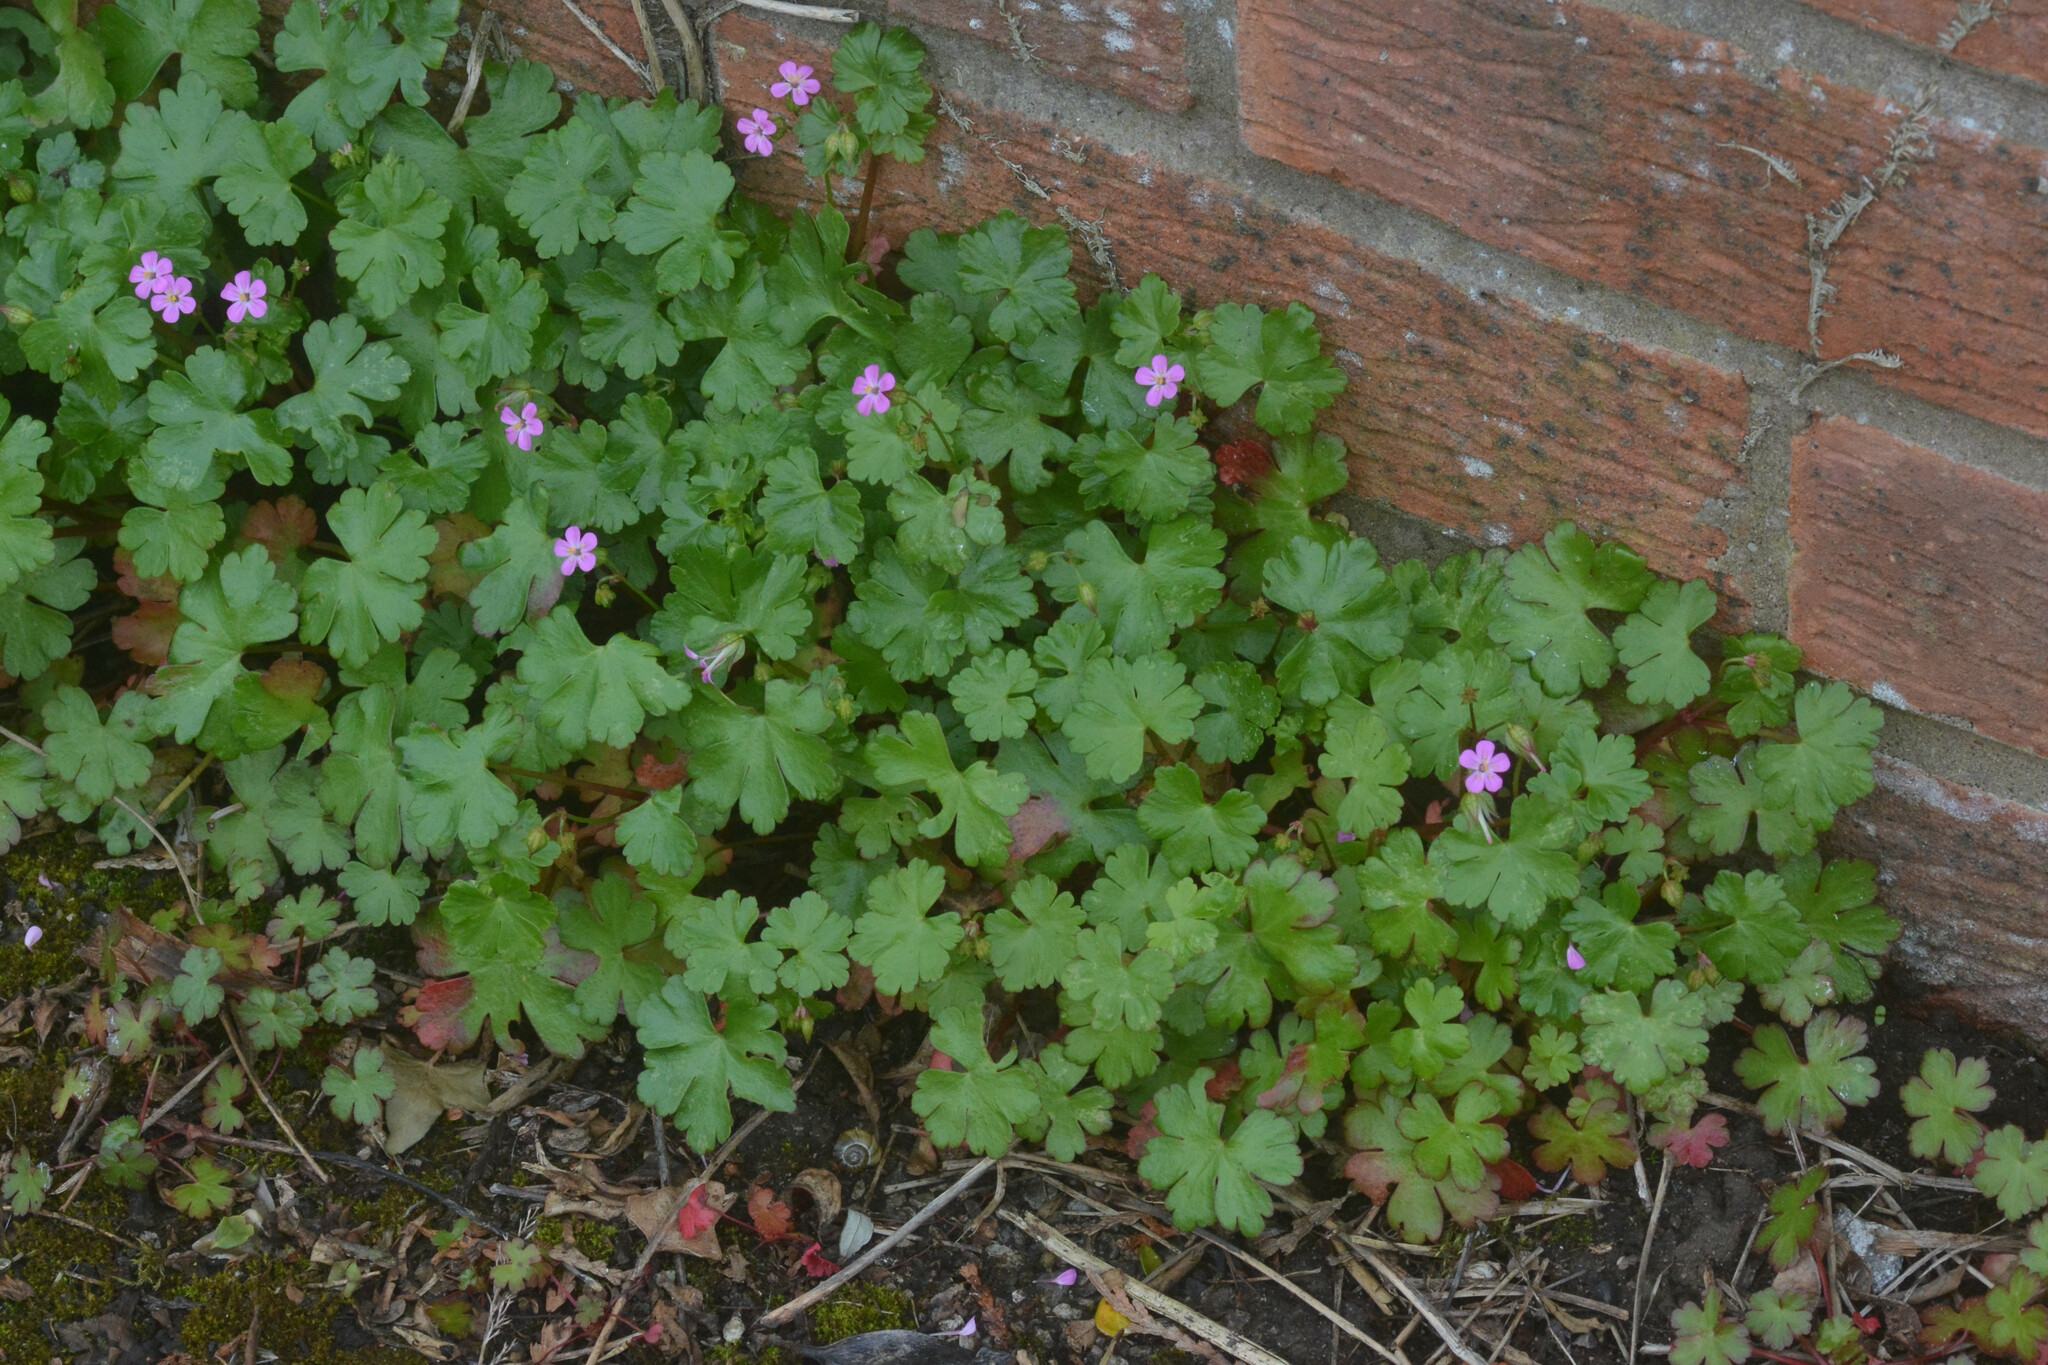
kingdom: Plantae
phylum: Tracheophyta
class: Magnoliopsida
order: Geraniales
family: Geraniaceae
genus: Geranium
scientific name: Geranium lucidum
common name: Shining crane's-bill
